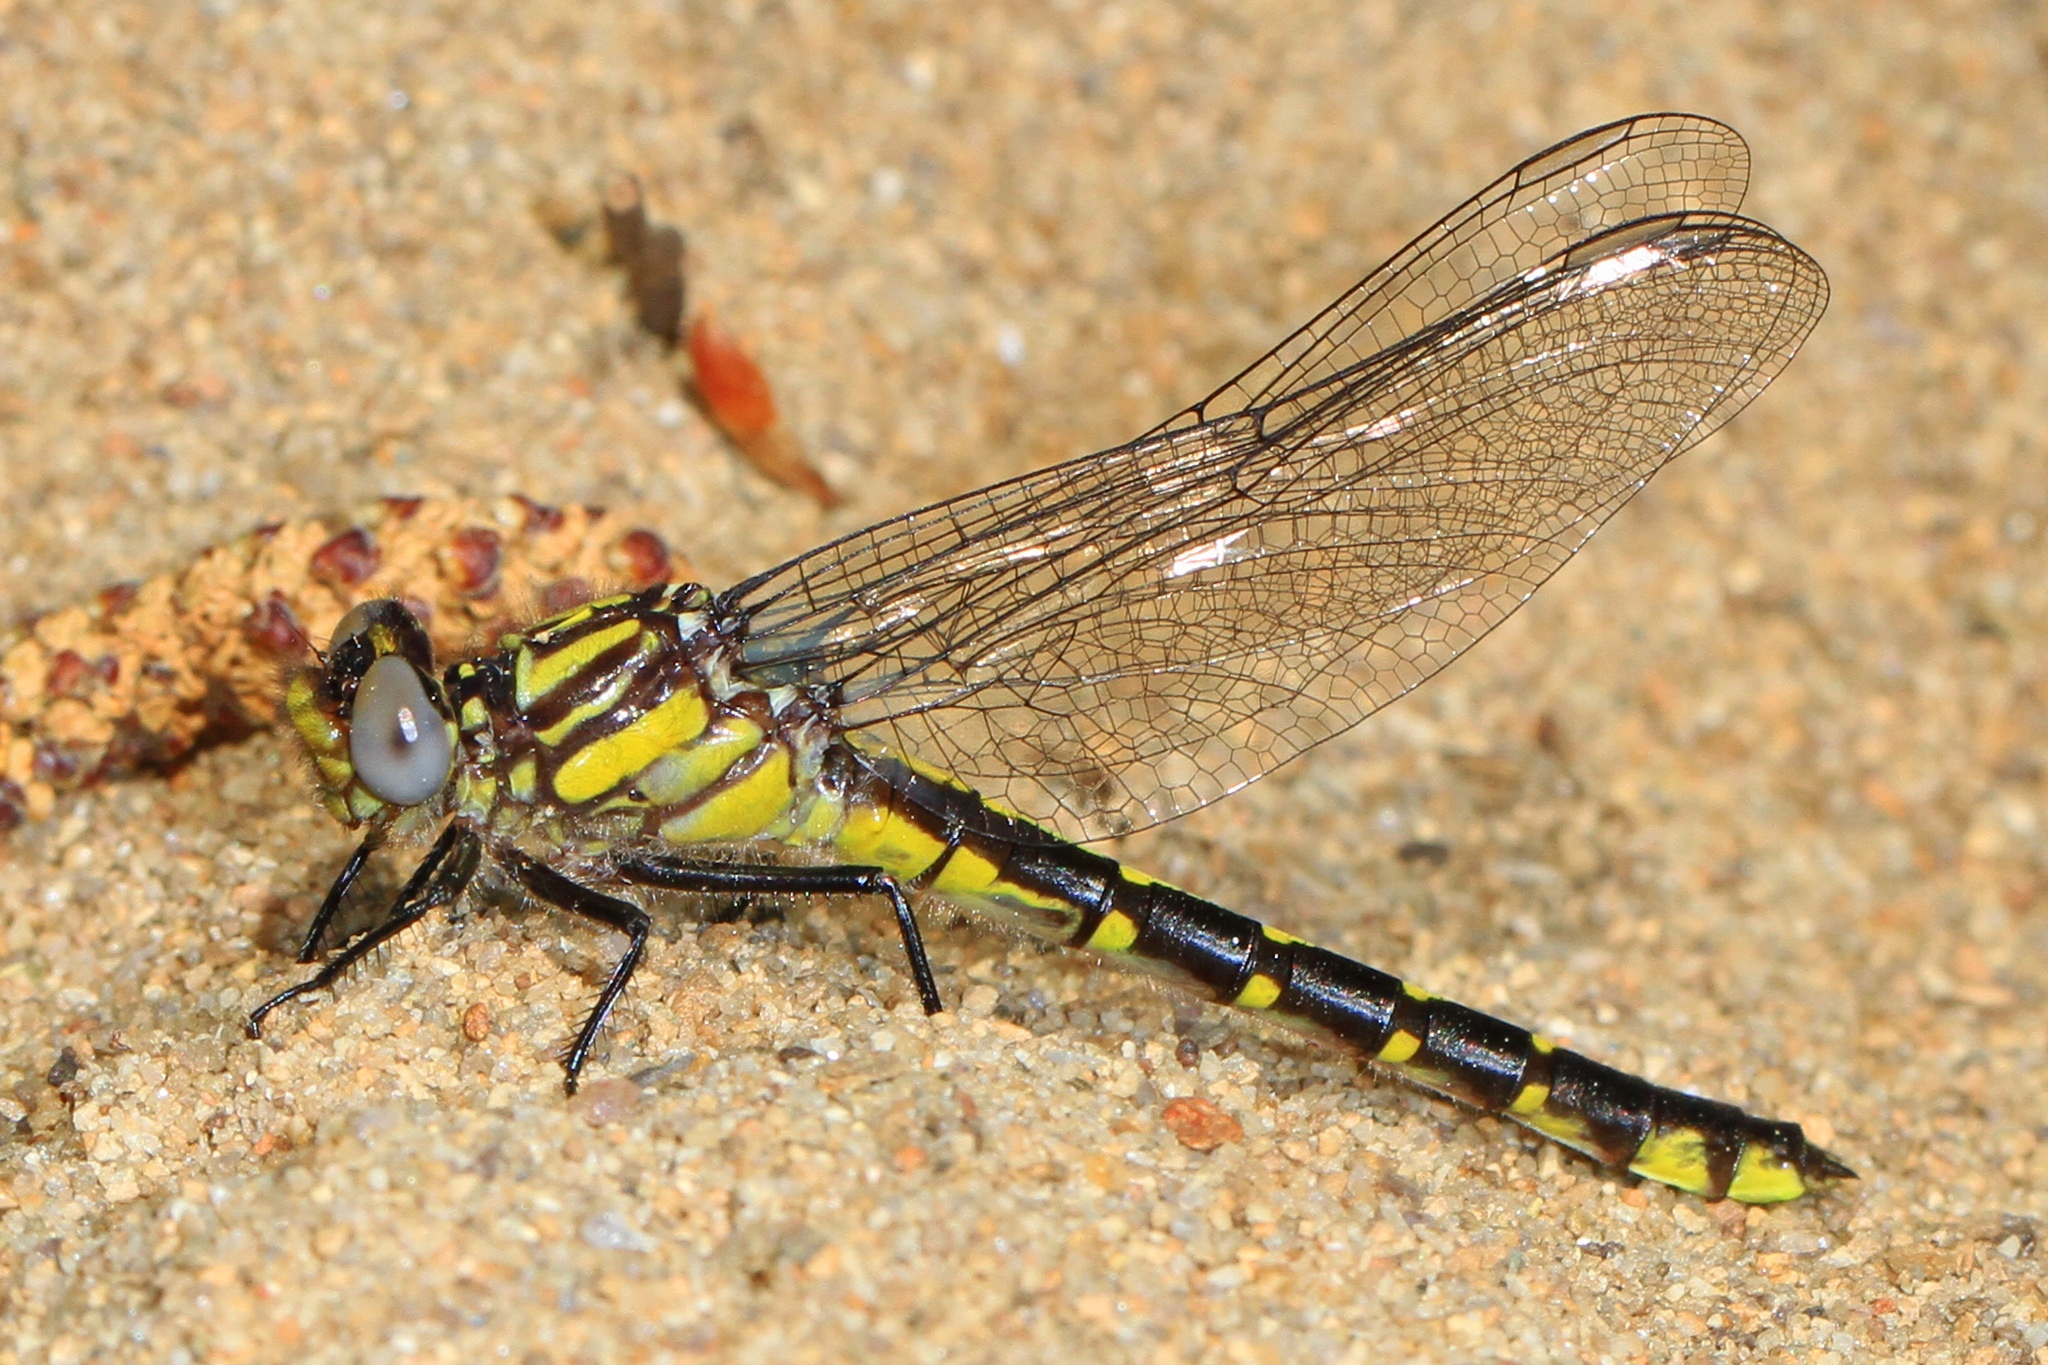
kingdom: Animalia
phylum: Arthropoda
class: Insecta
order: Odonata
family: Gomphidae
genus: Hylogomphus
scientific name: Hylogomphus abbreviatus
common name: Spine-crowned clubtail
